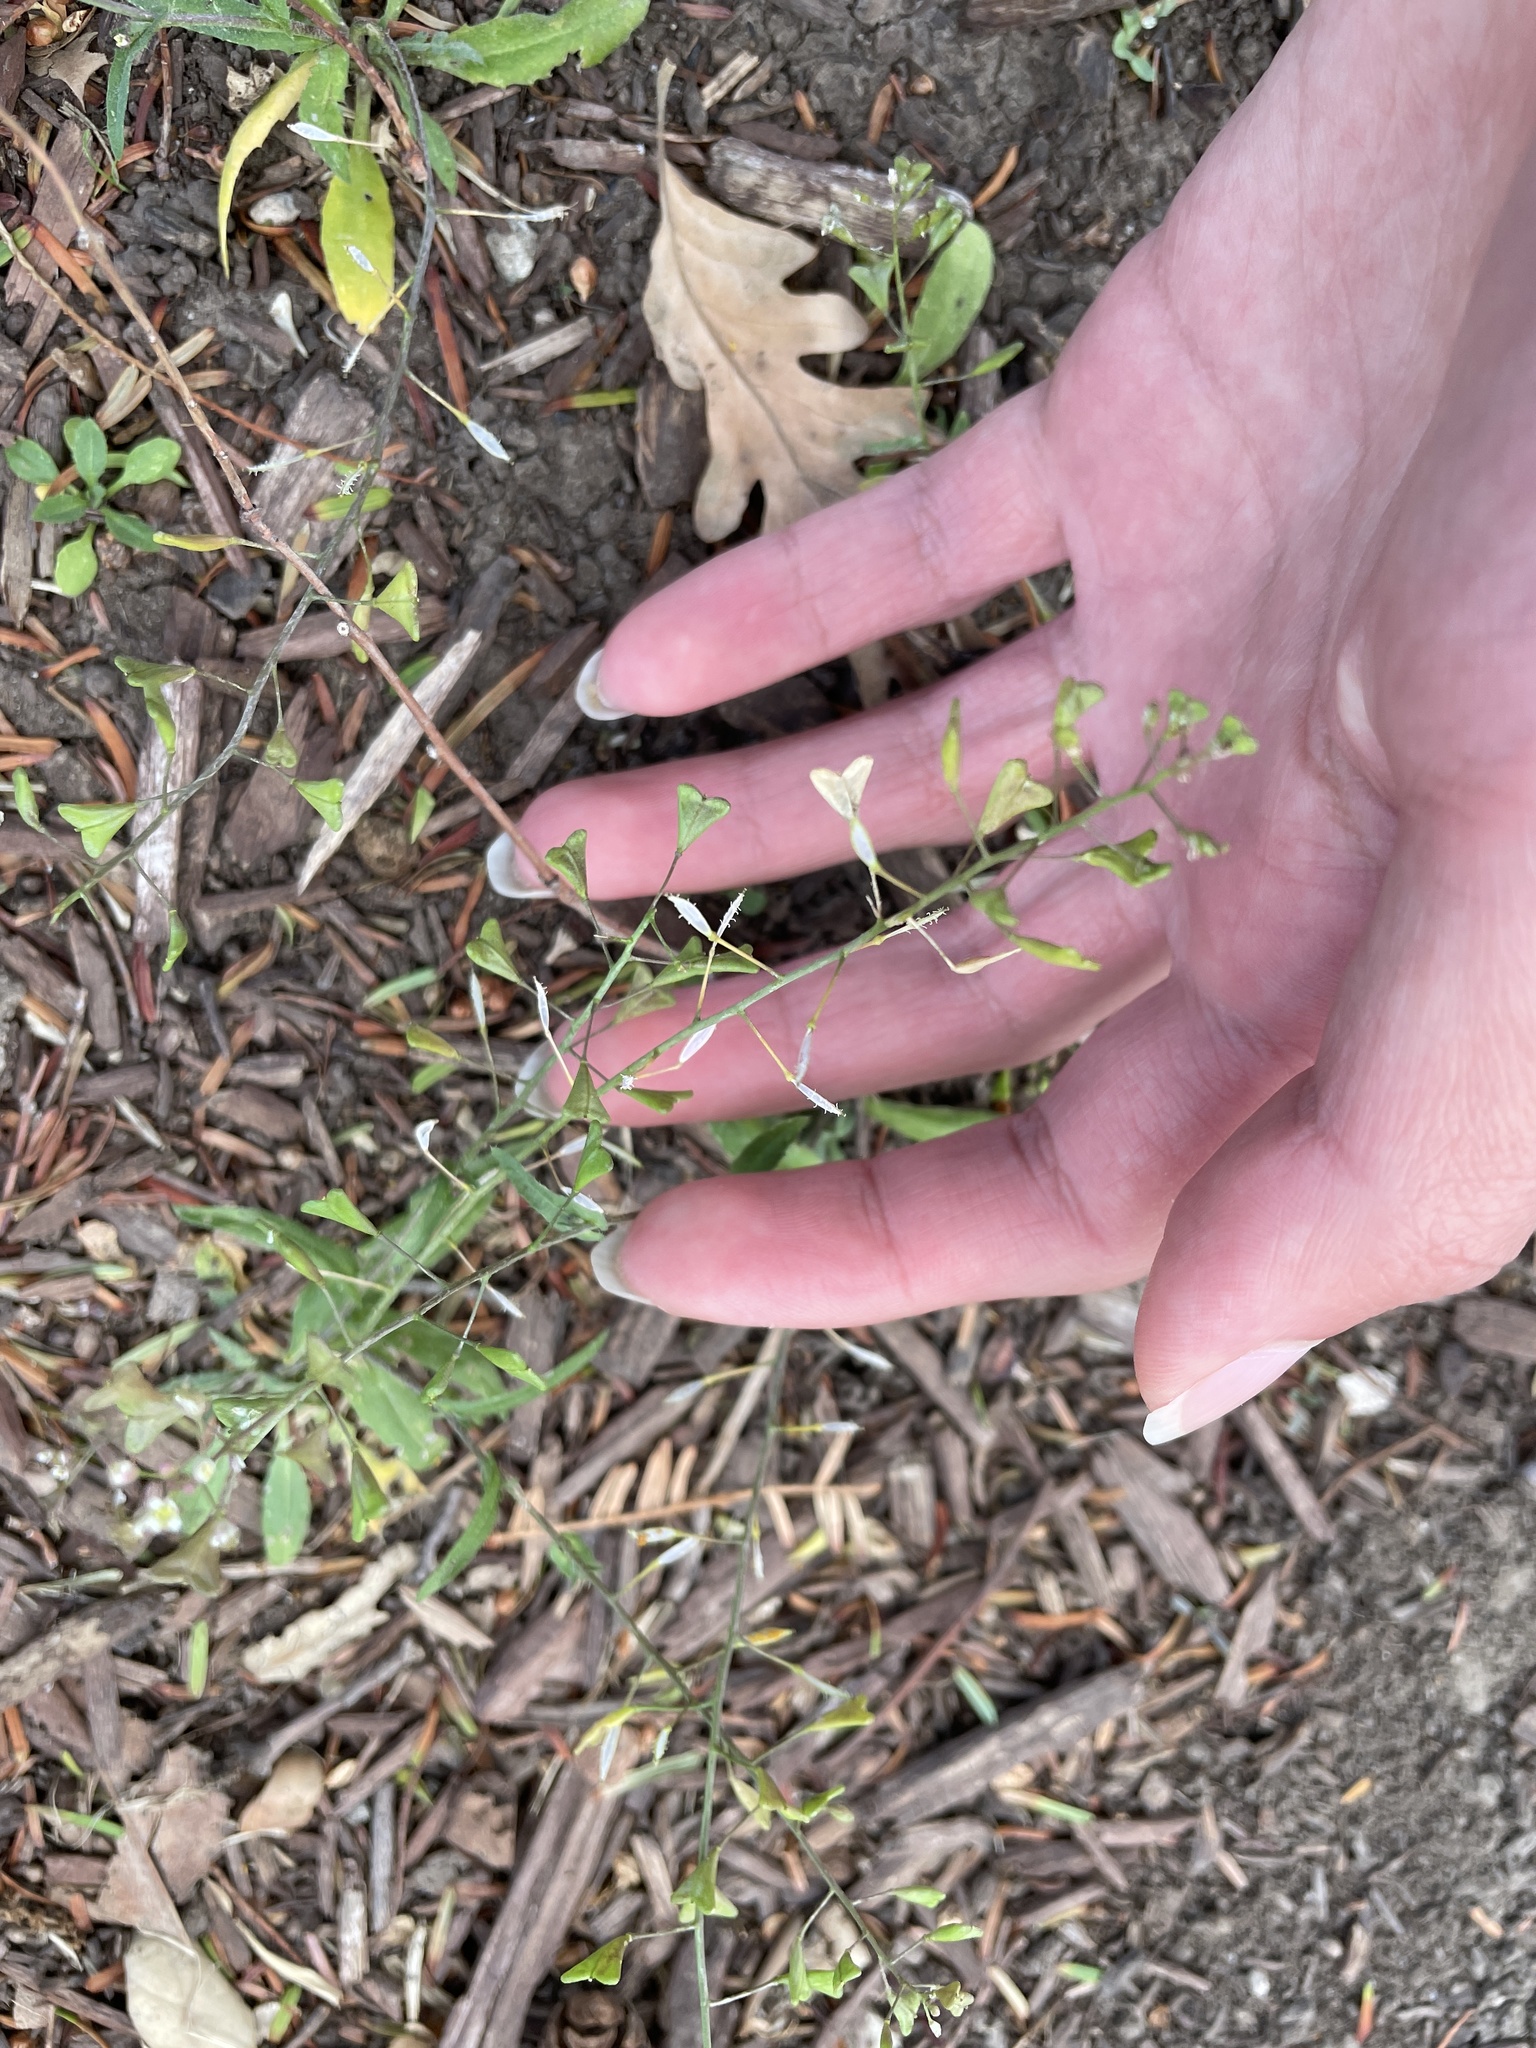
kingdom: Plantae
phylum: Tracheophyta
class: Magnoliopsida
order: Brassicales
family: Brassicaceae
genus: Capsella
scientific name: Capsella bursa-pastoris
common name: Shepherd's purse
